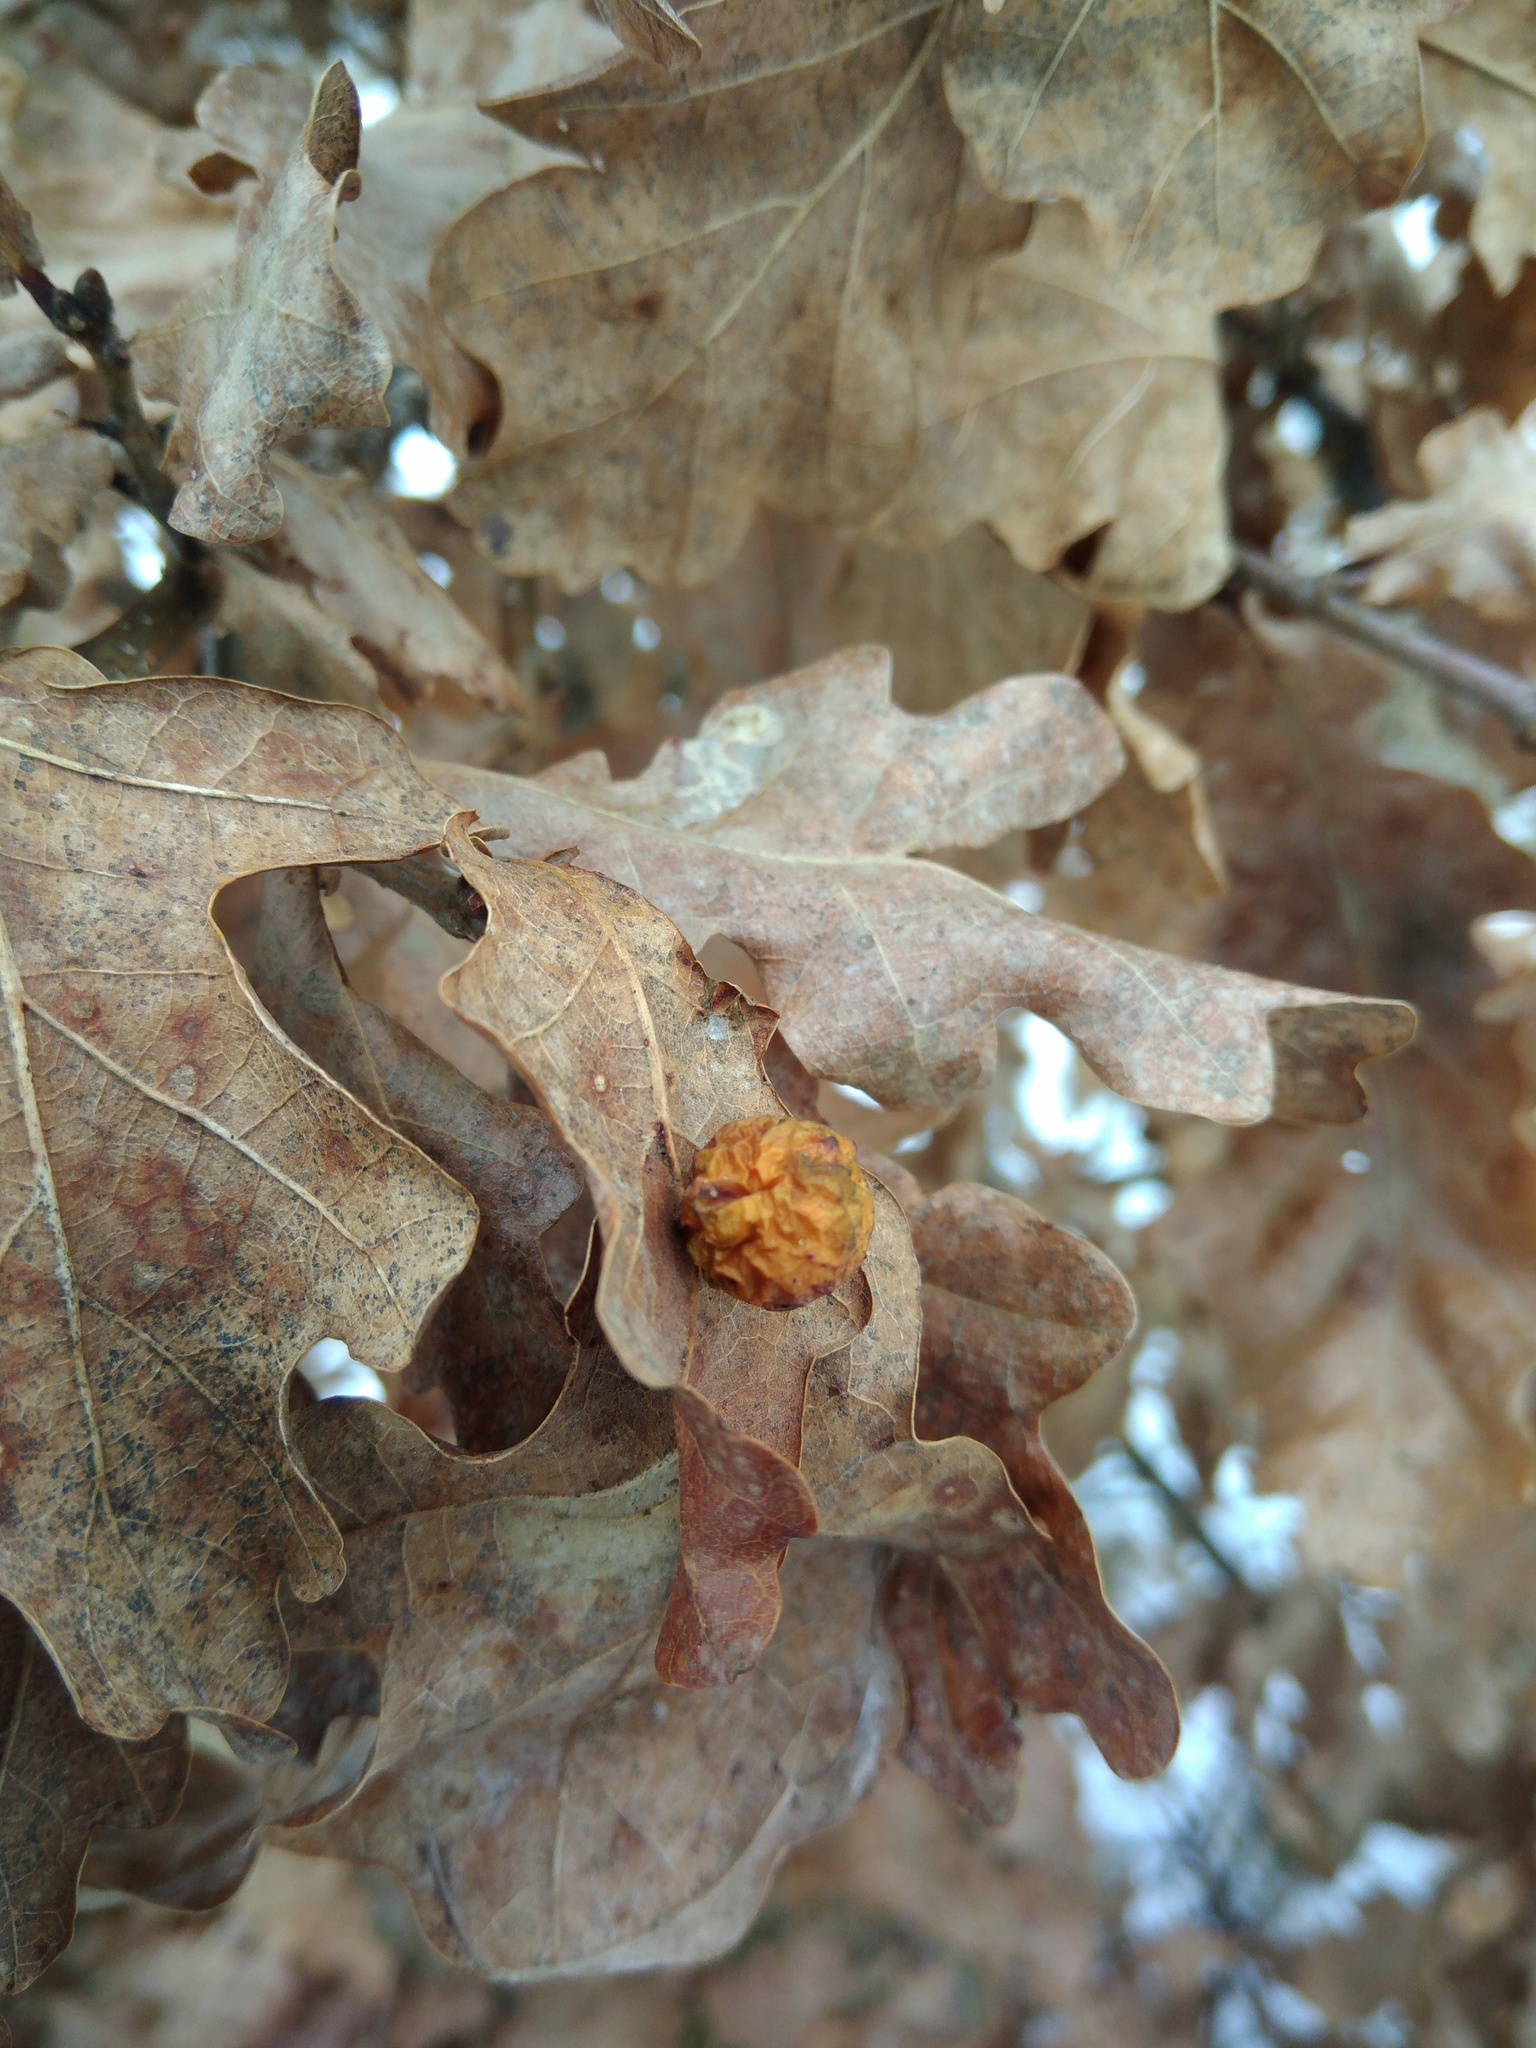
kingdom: Animalia
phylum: Arthropoda
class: Insecta
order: Hymenoptera
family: Cynipidae
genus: Cynips
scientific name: Cynips quercusfolii
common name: Cherry gall
